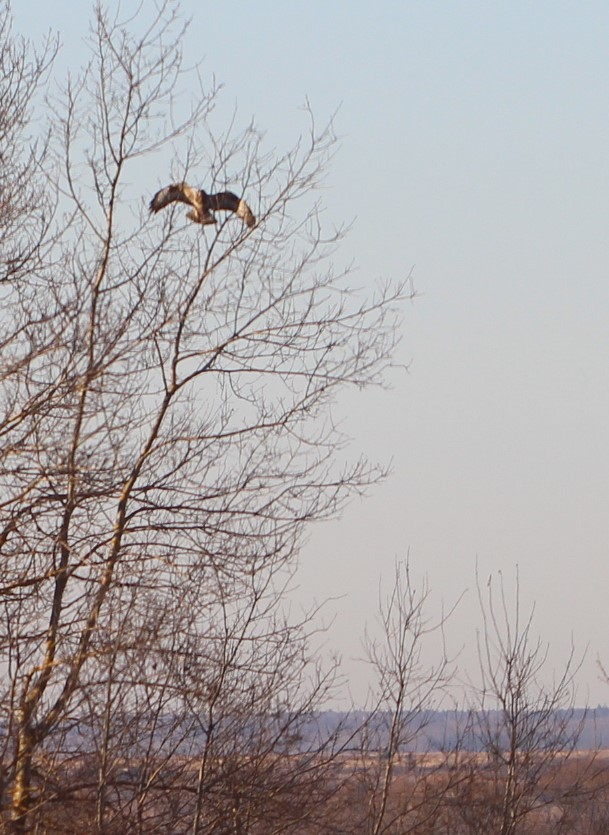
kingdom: Animalia
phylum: Chordata
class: Aves
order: Accipitriformes
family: Accipitridae
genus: Buteo
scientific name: Buteo lagopus
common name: Rough-legged buzzard
